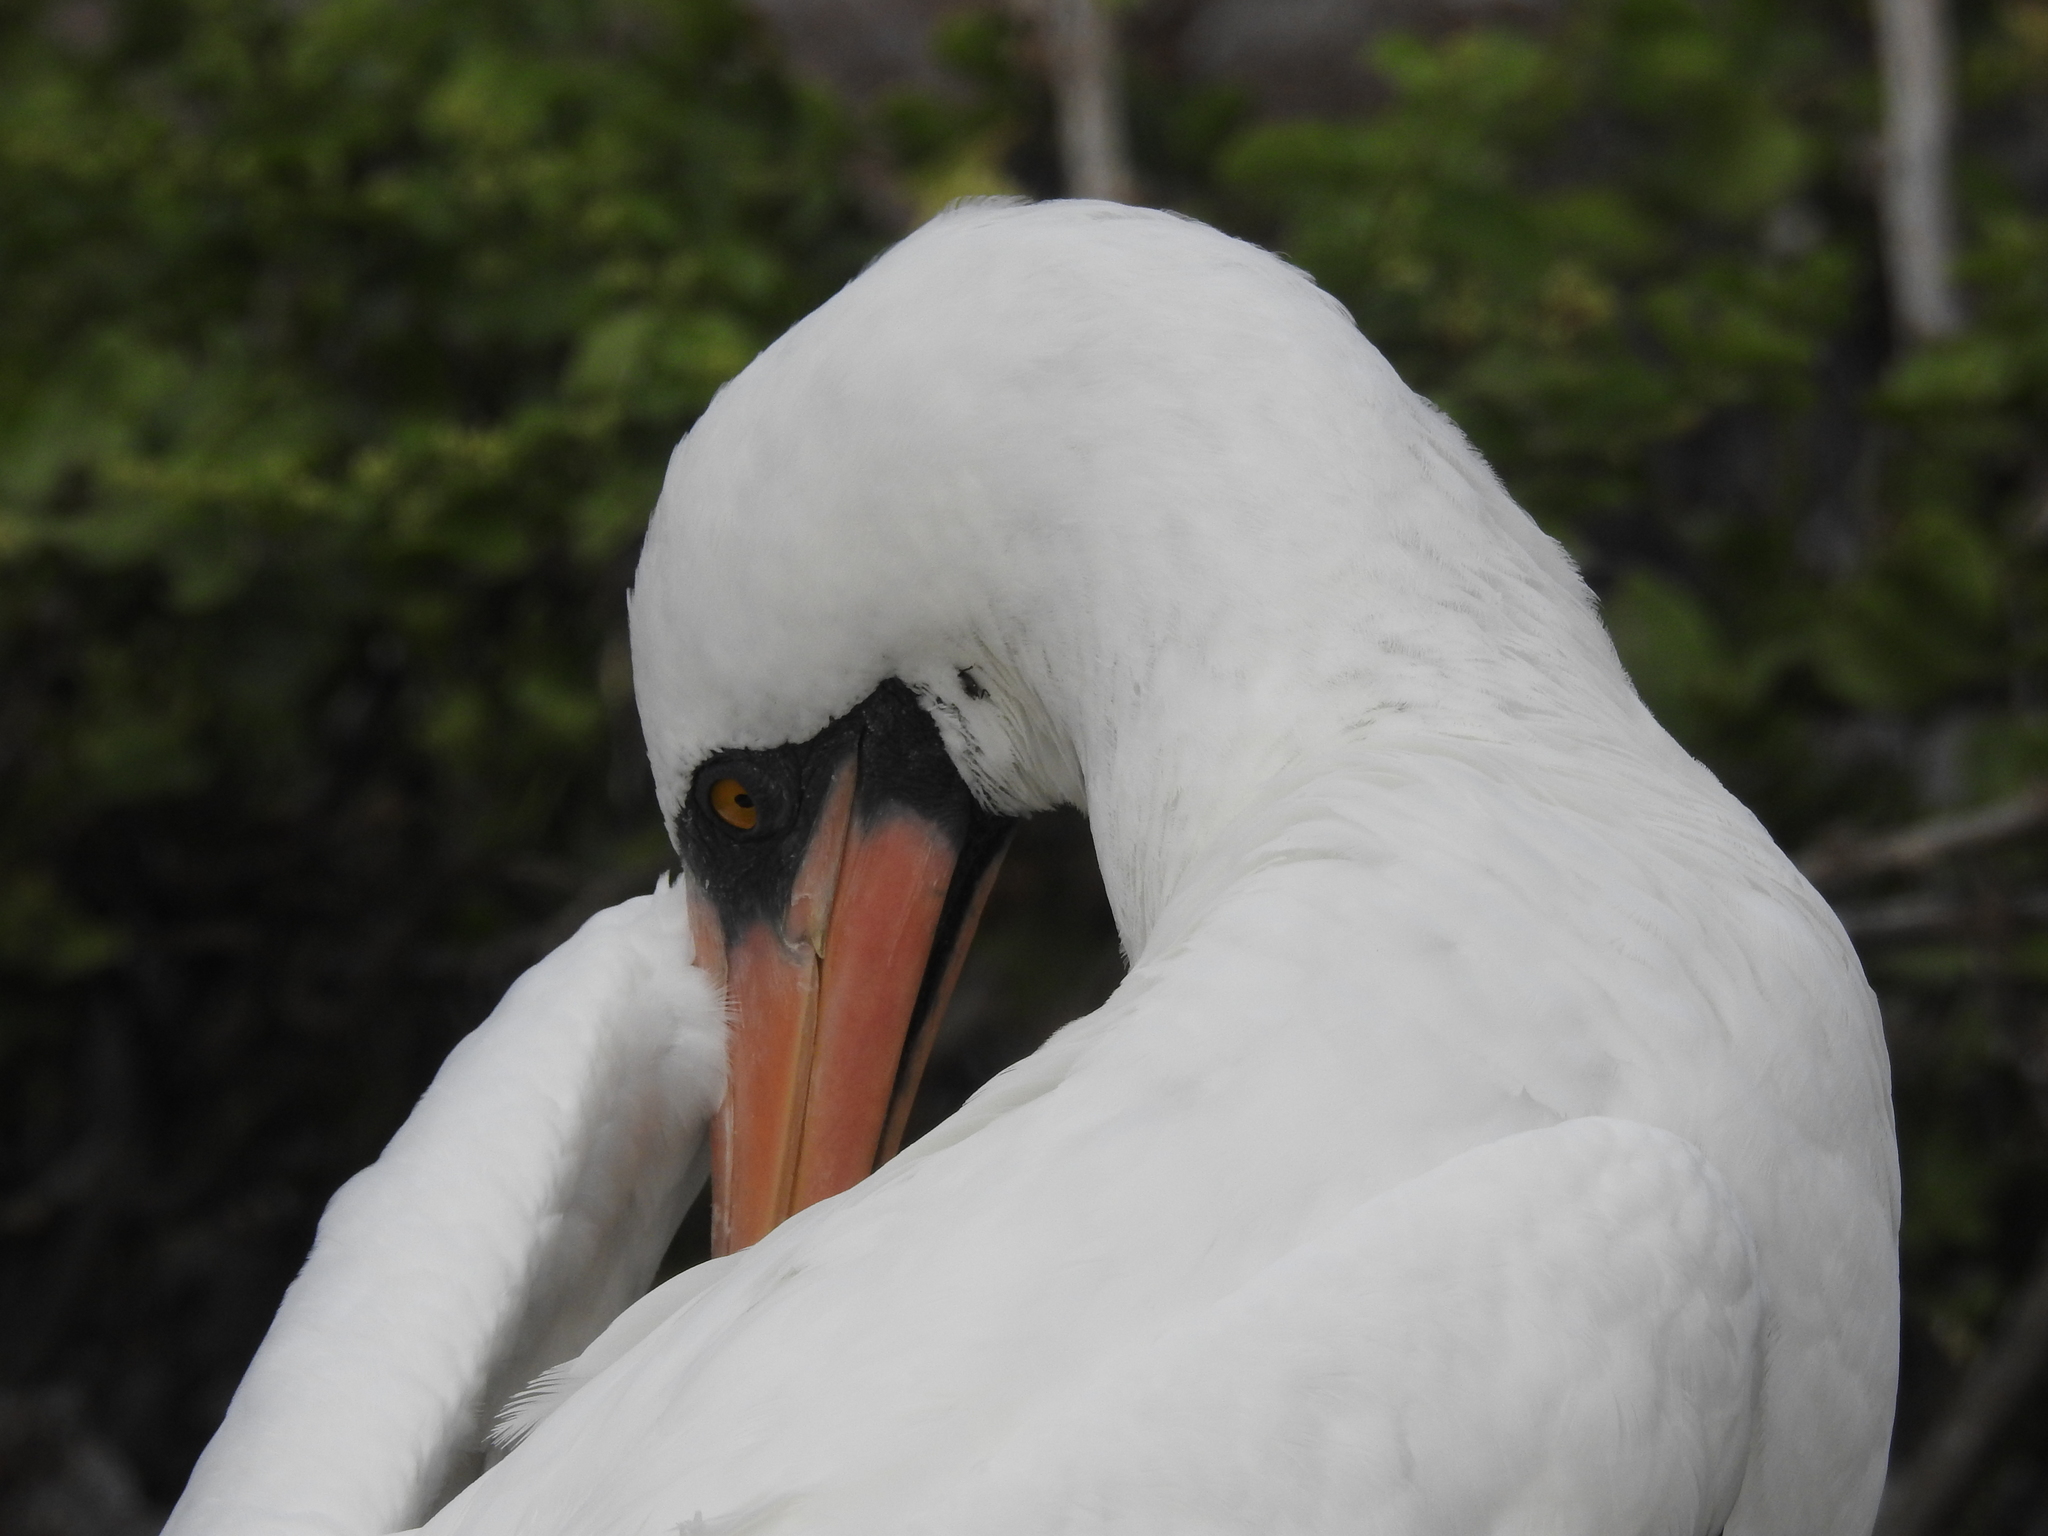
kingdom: Animalia
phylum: Chordata
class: Aves
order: Suliformes
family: Sulidae
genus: Sula
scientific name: Sula granti
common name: Nazca booby
